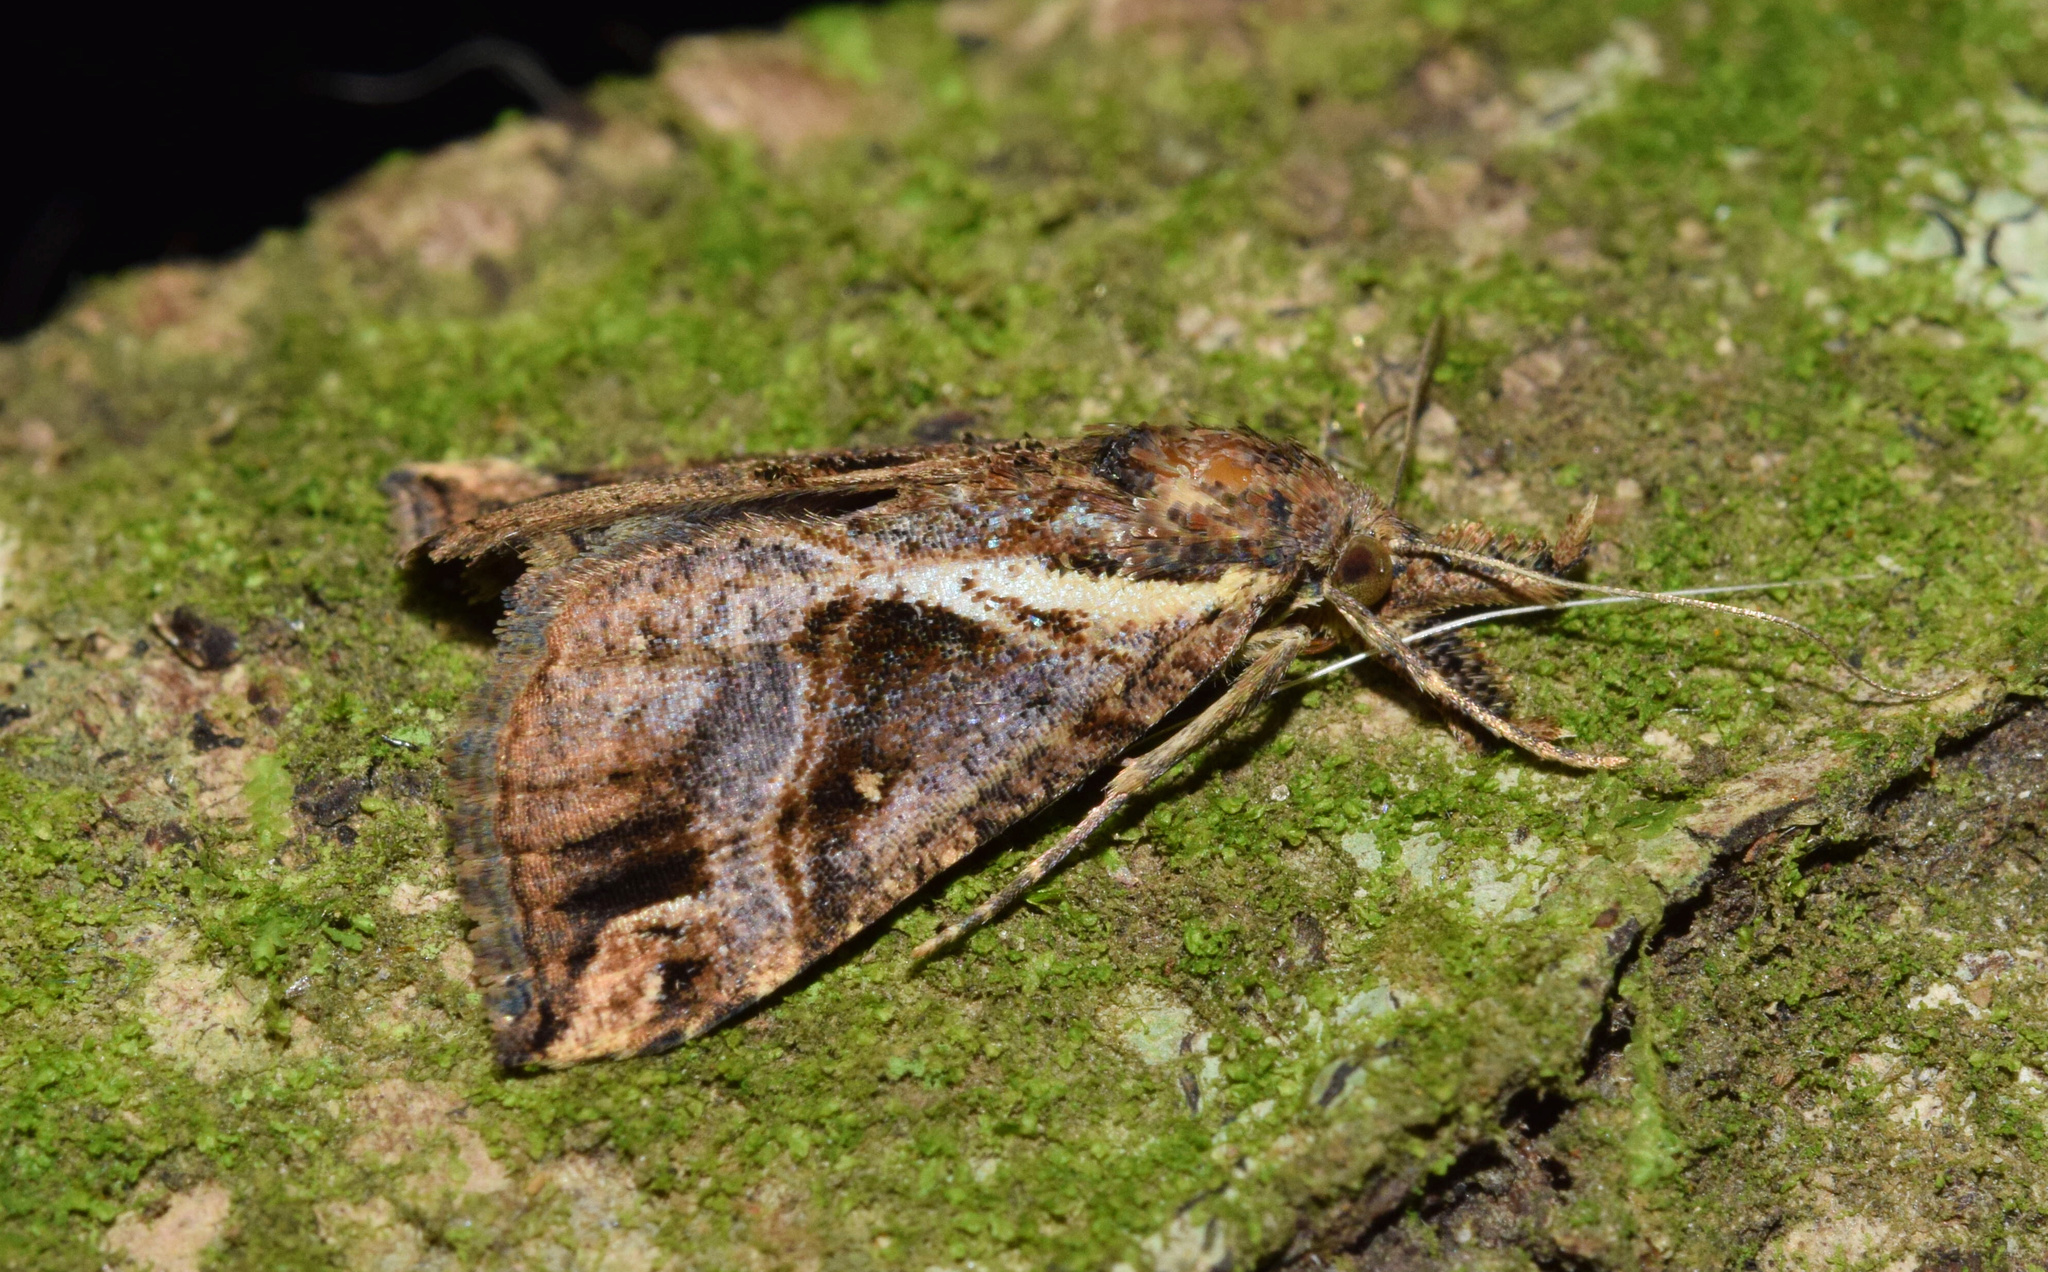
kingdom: Animalia
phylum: Arthropoda
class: Insecta
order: Lepidoptera
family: Erebidae
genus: Hypena
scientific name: Hypena palpitralis
